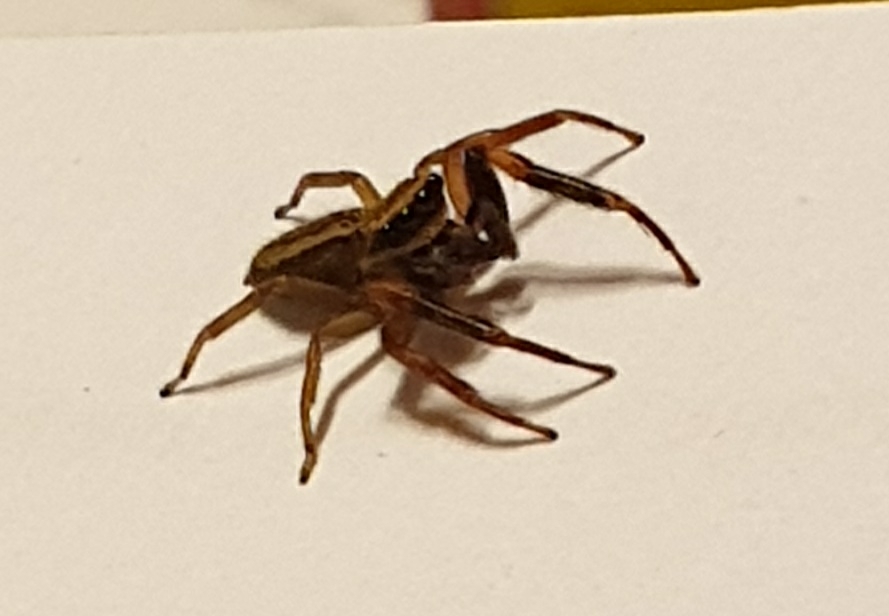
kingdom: Animalia
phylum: Arthropoda
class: Arachnida
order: Araneae
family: Salticidae
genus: Trite
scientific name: Trite auricoma
